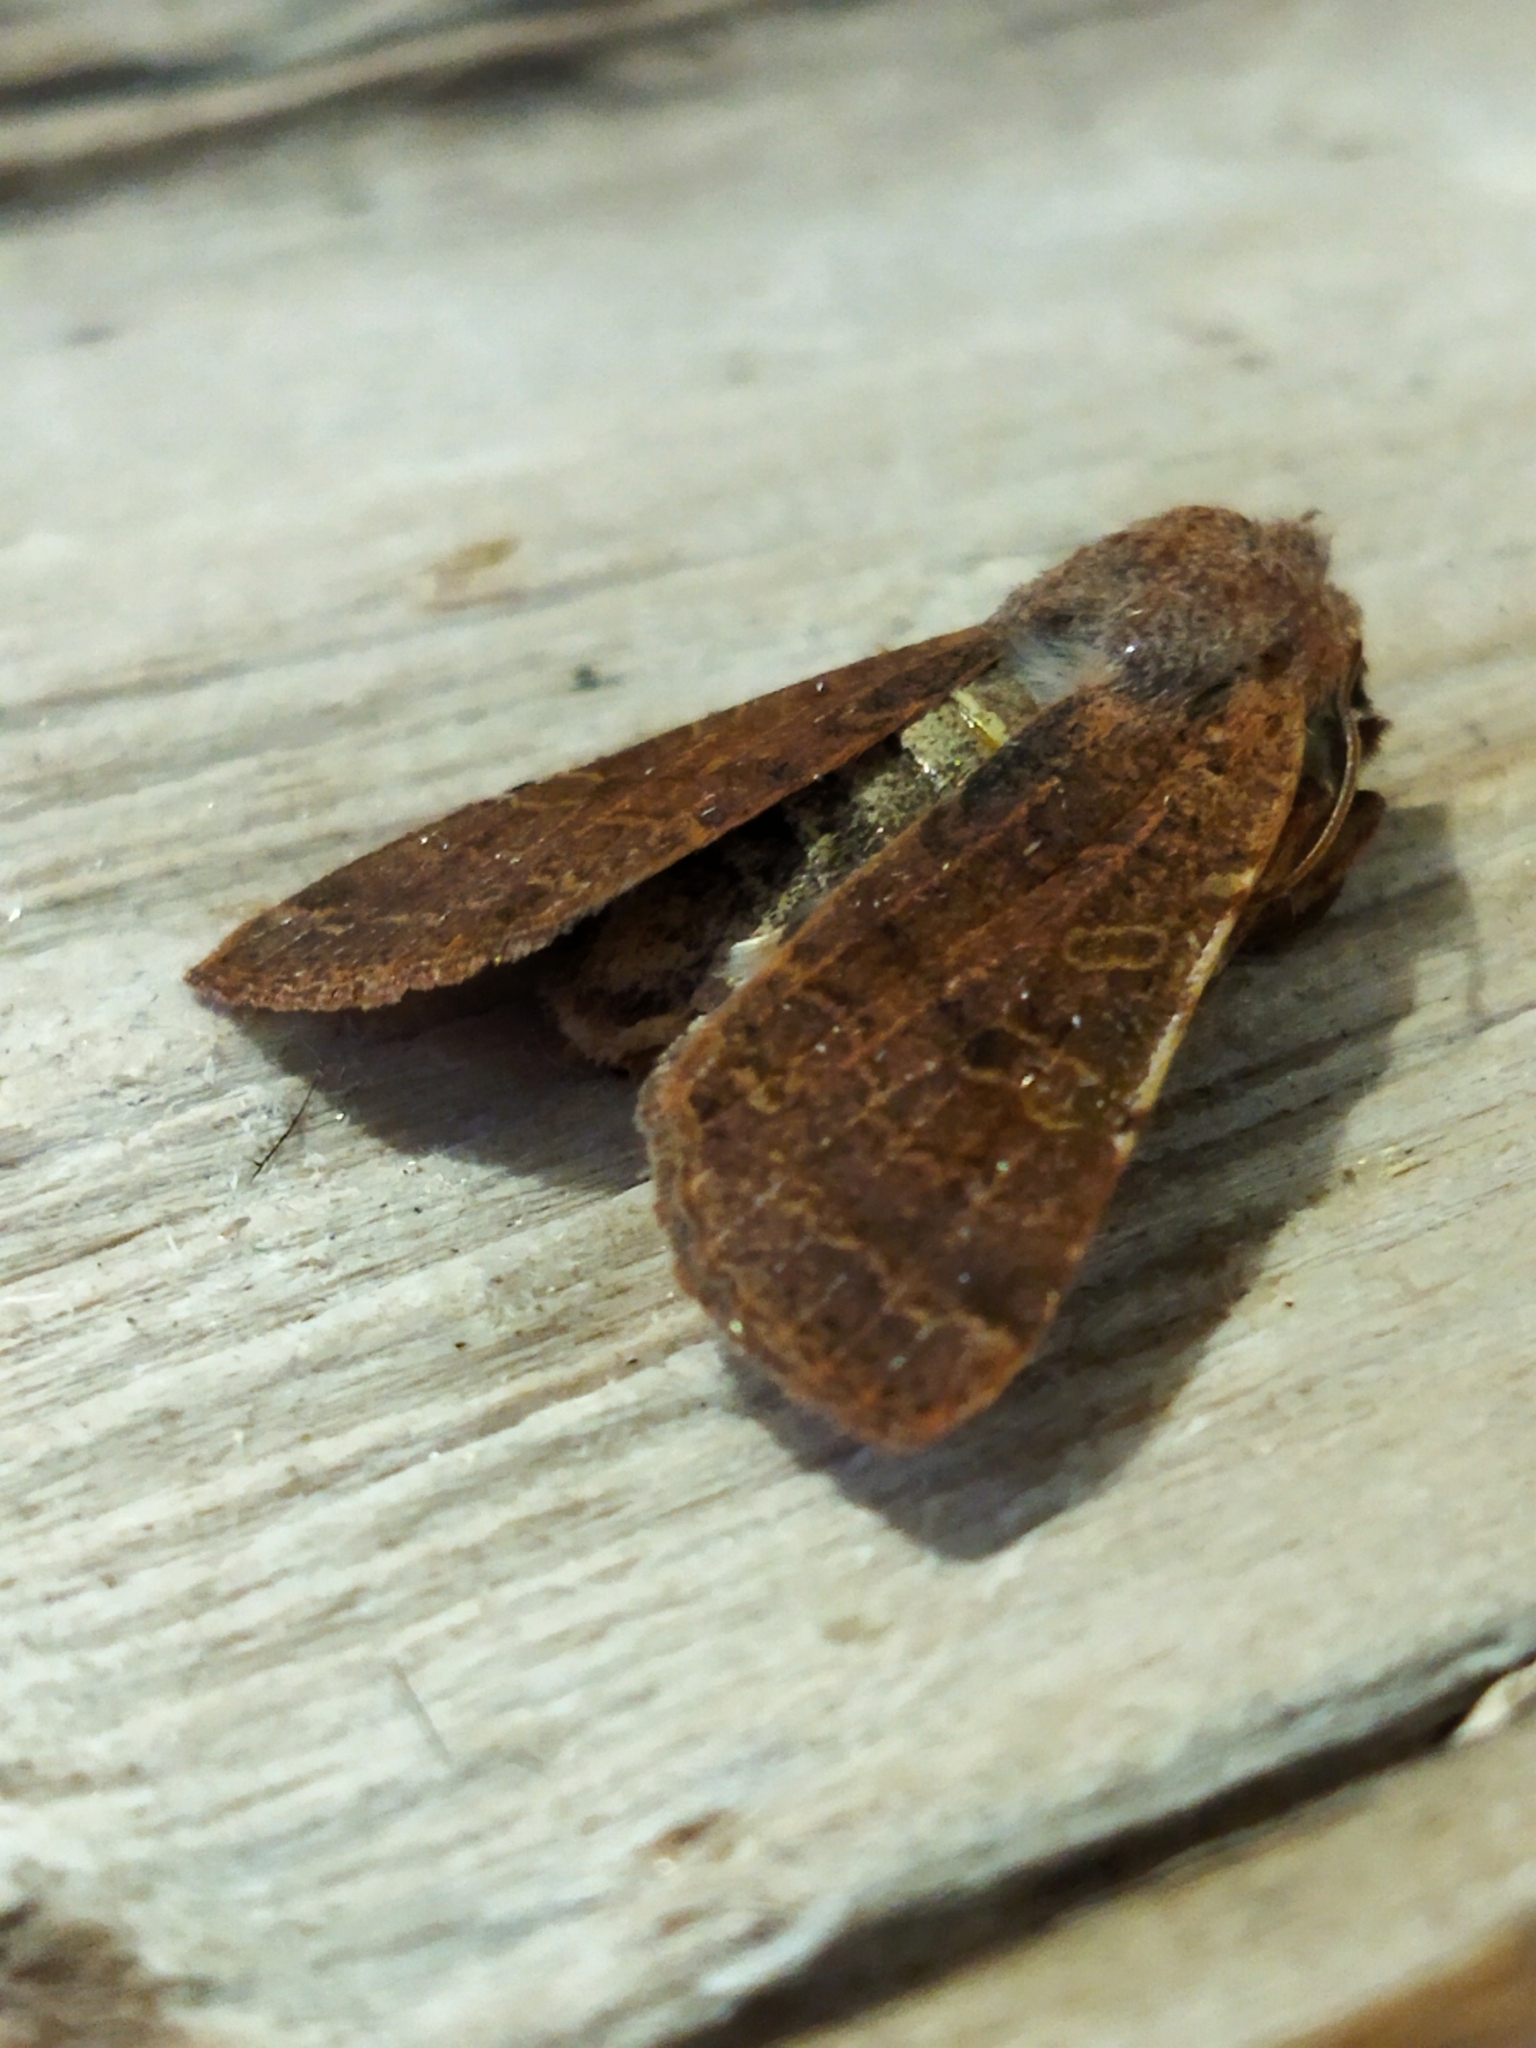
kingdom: Animalia
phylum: Arthropoda
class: Insecta
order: Lepidoptera
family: Noctuidae
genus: Agrochola
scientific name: Agrochola lychnidis
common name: Beaded chestnut
